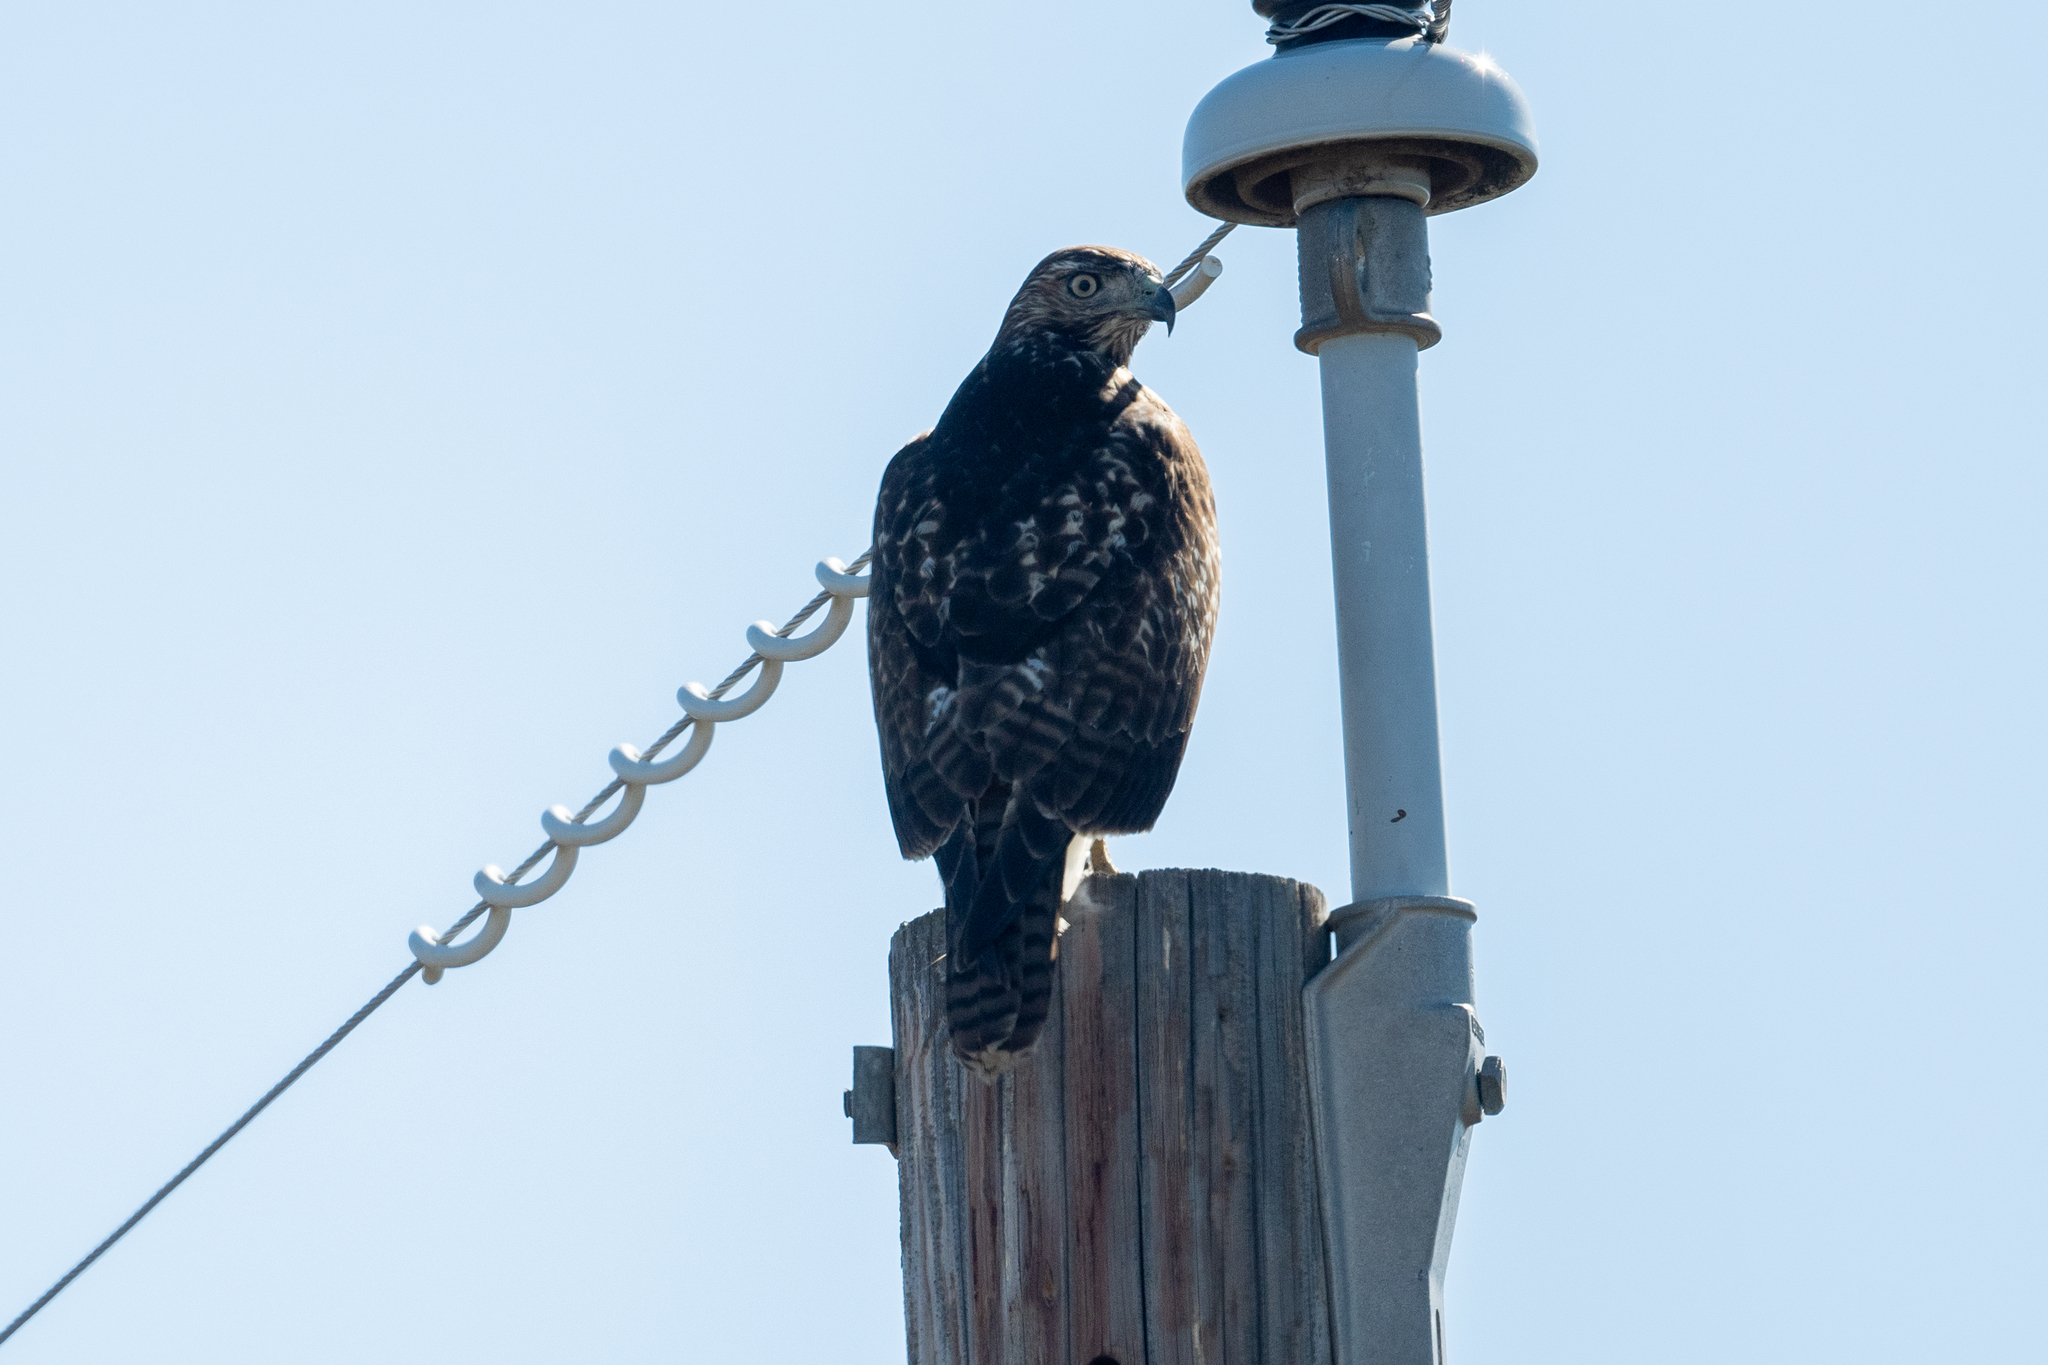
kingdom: Animalia
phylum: Chordata
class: Aves
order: Accipitriformes
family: Accipitridae
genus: Buteo
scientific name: Buteo jamaicensis
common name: Red-tailed hawk
